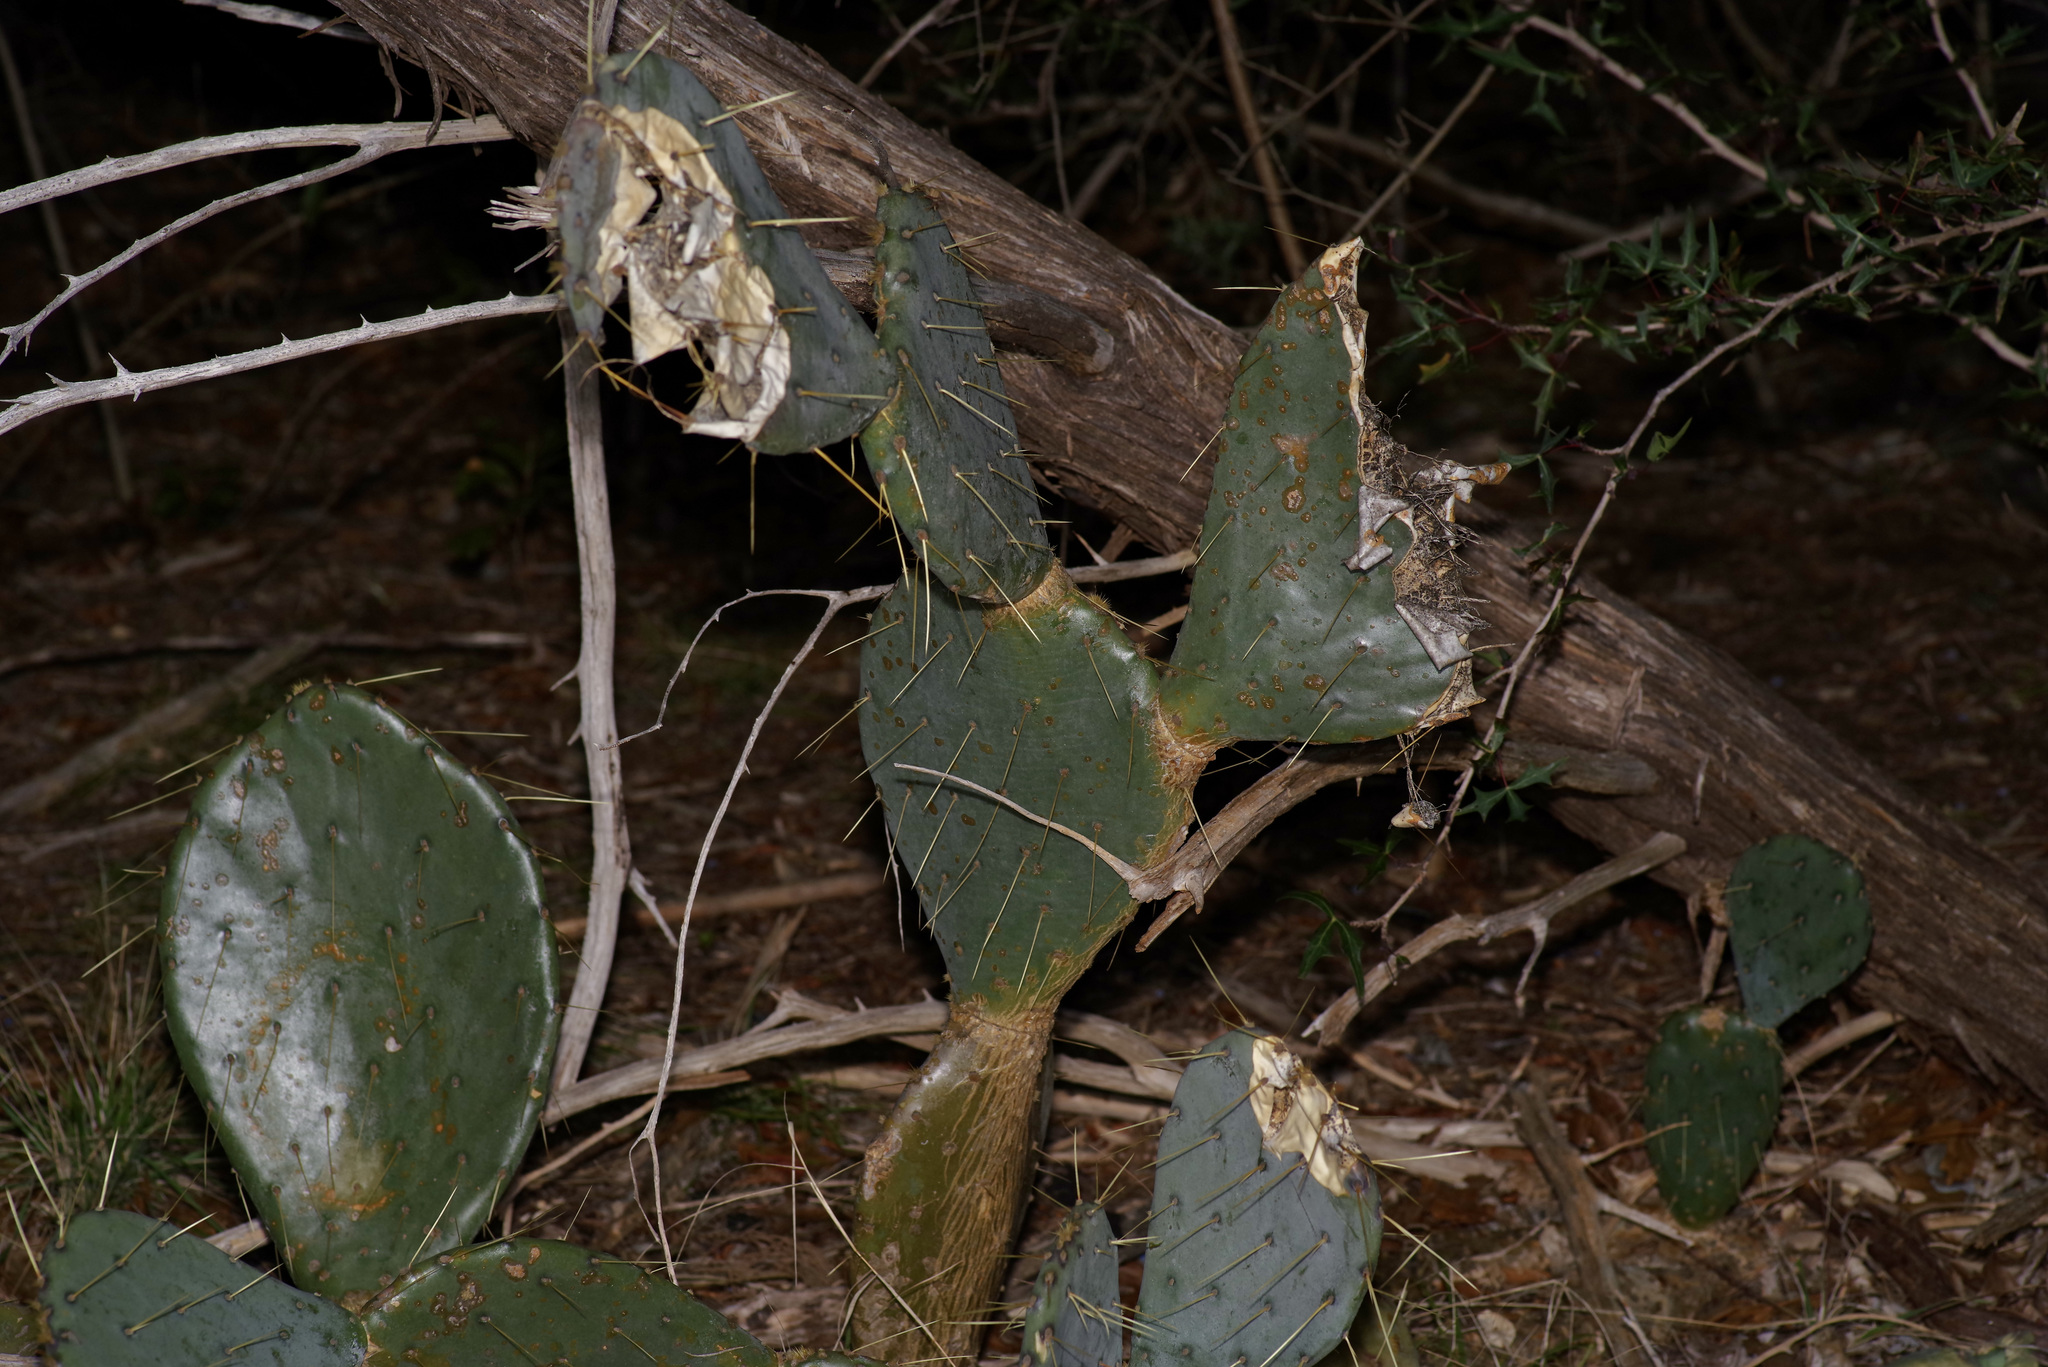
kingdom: Plantae
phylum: Tracheophyta
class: Magnoliopsida
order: Caryophyllales
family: Cactaceae
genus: Opuntia
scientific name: Opuntia engelmannii
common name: Cactus-apple
